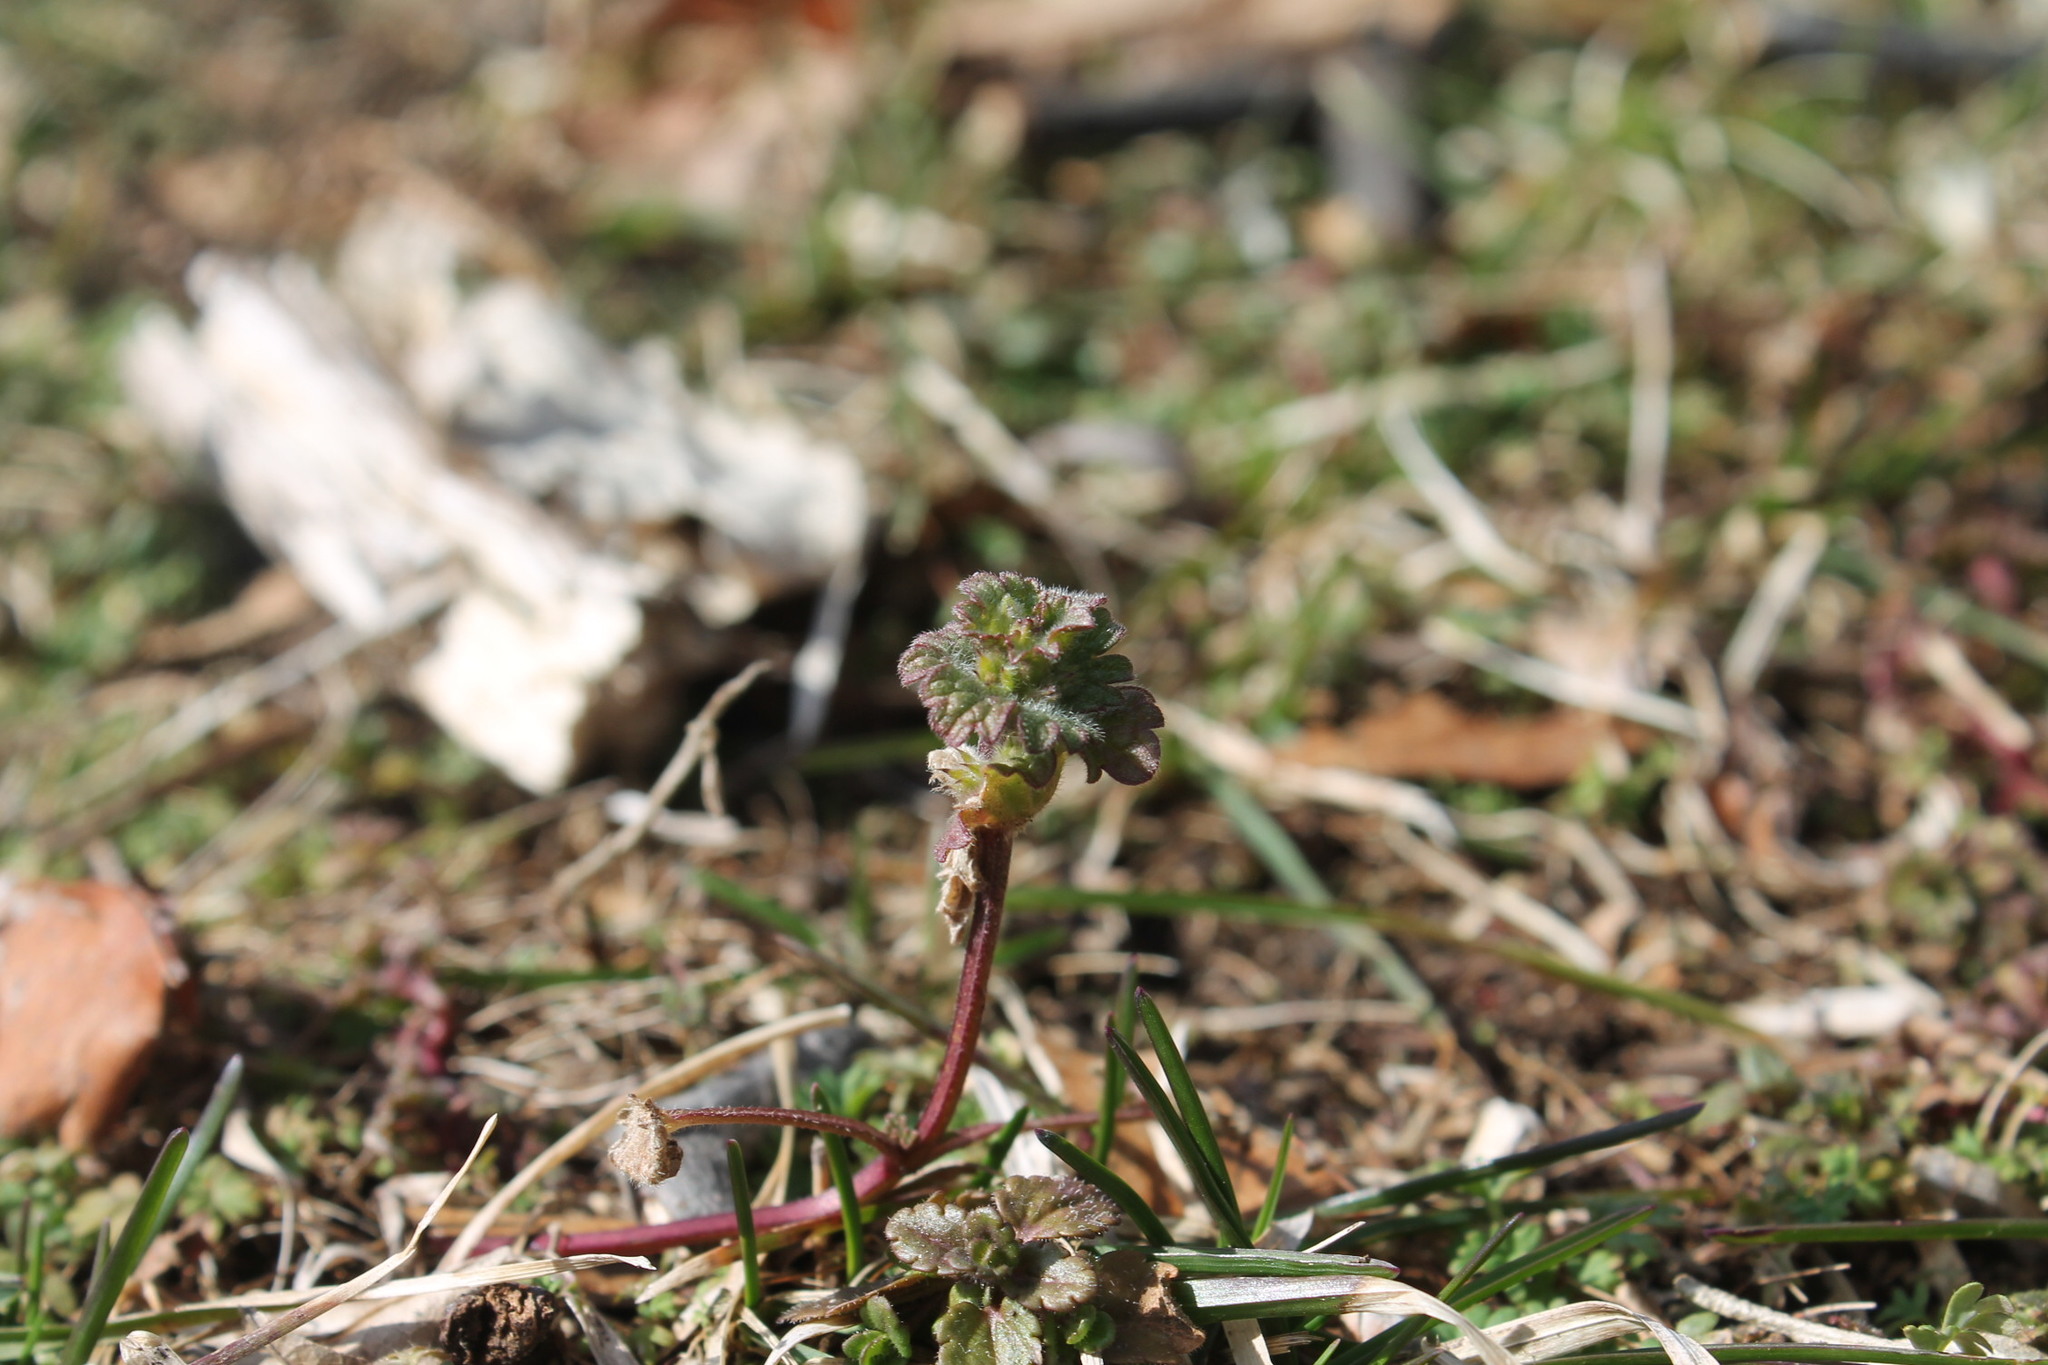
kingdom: Plantae
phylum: Tracheophyta
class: Magnoliopsida
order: Lamiales
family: Lamiaceae
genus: Lamium
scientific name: Lamium amplexicaule
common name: Henbit dead-nettle
